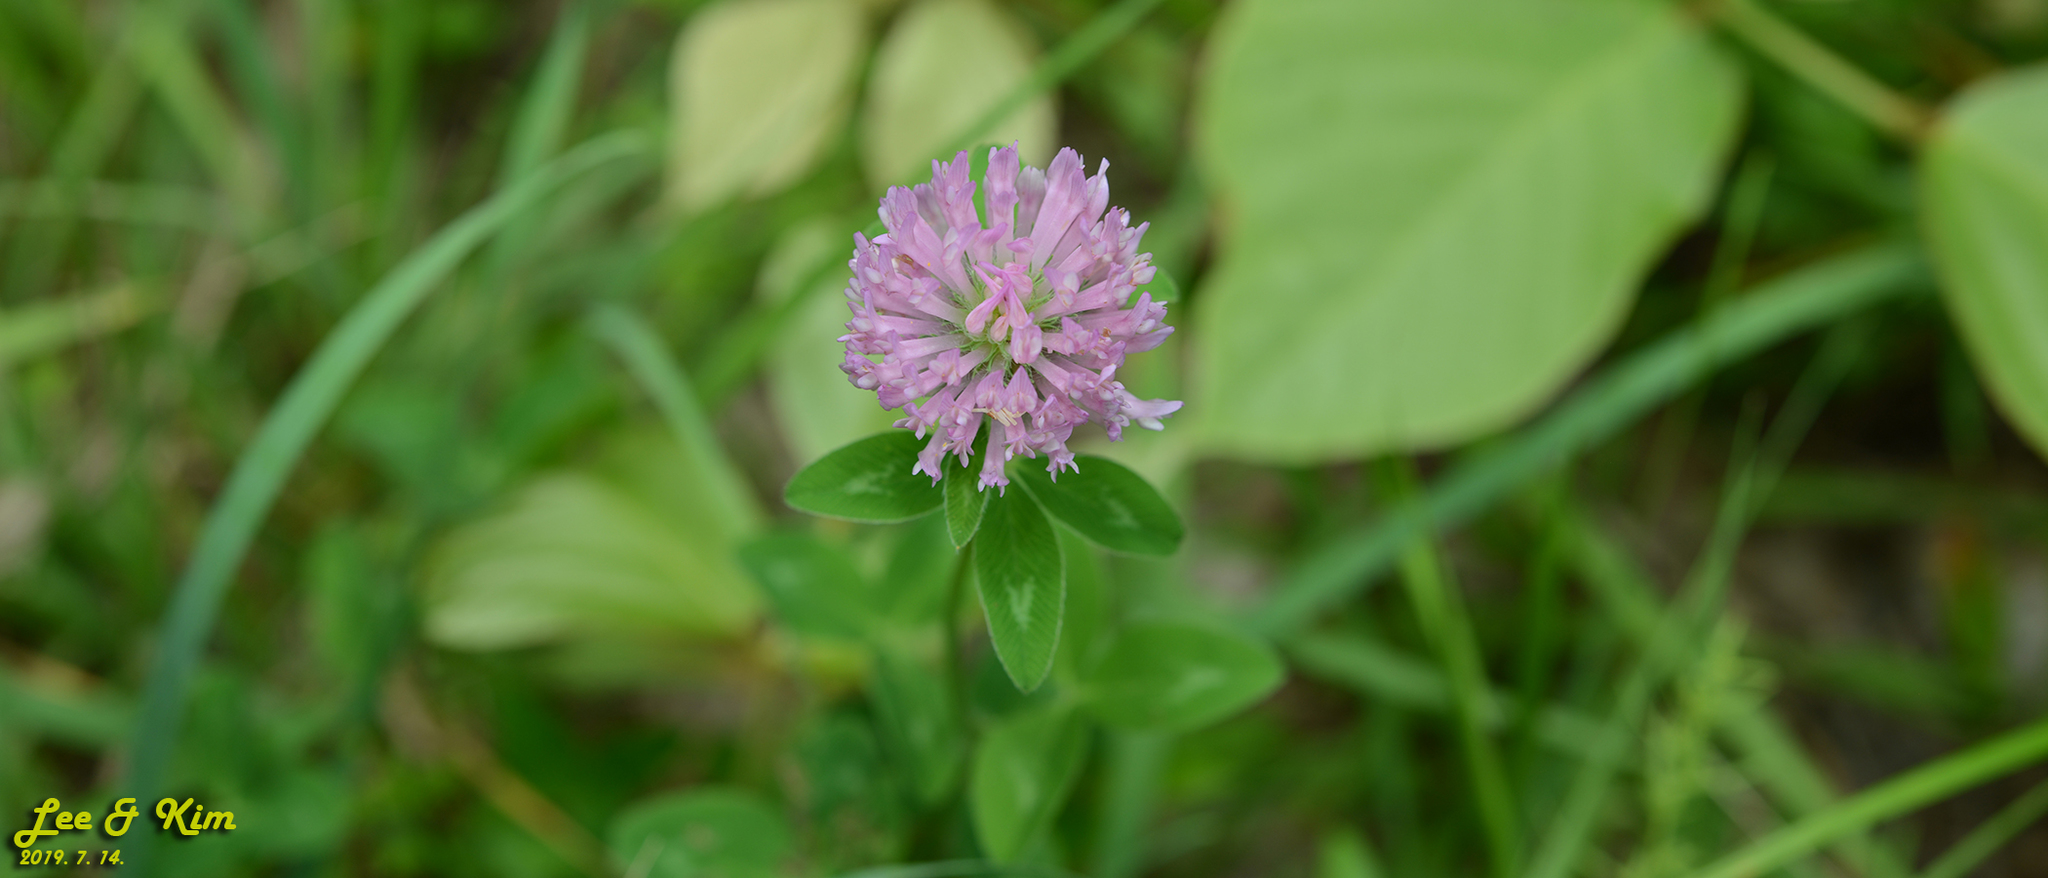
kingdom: Plantae
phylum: Tracheophyta
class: Magnoliopsida
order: Fabales
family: Fabaceae
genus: Trifolium
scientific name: Trifolium pratense
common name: Red clover
